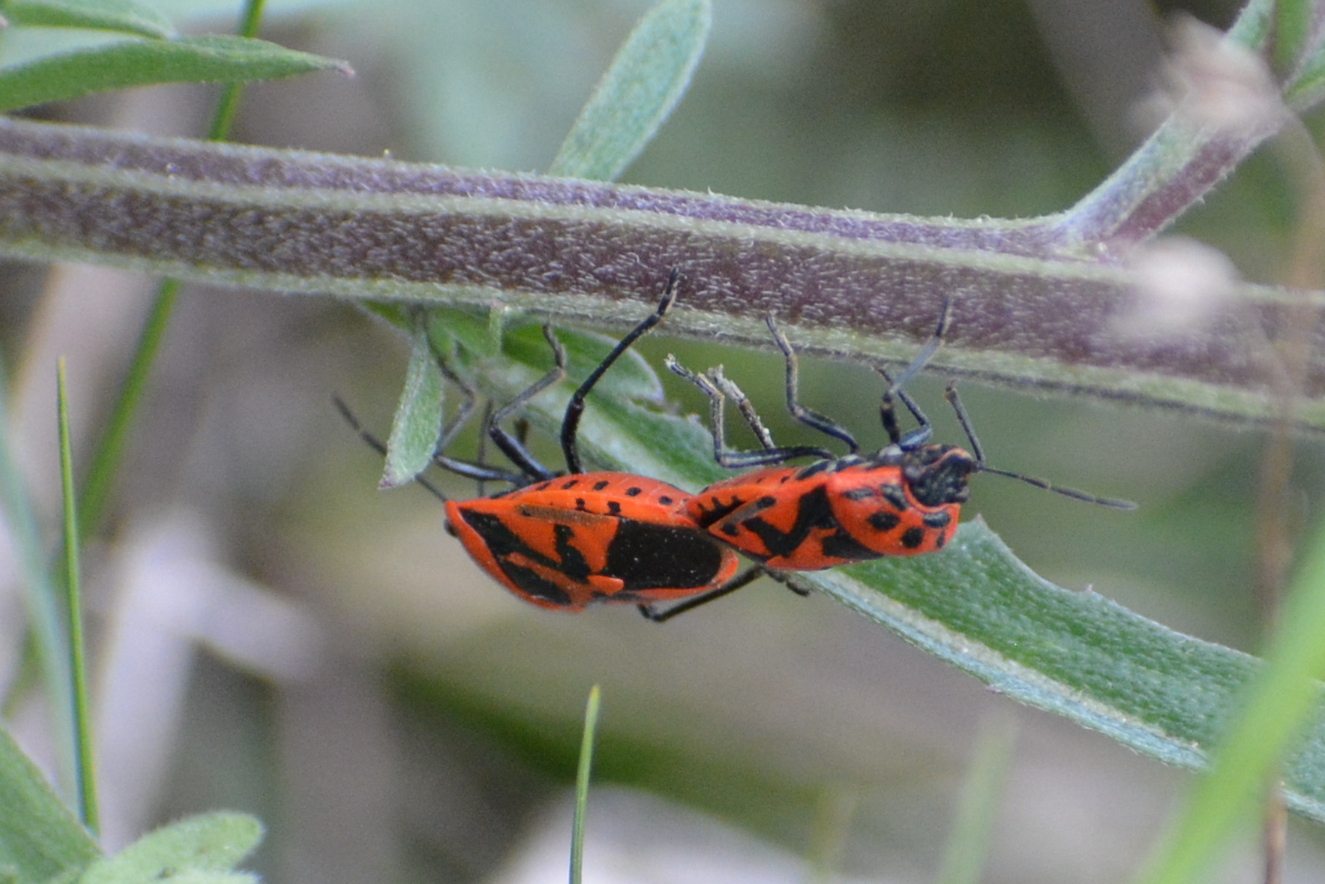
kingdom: Animalia
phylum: Arthropoda
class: Insecta
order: Hemiptera
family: Pentatomidae
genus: Eurydema
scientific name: Eurydema ornata
